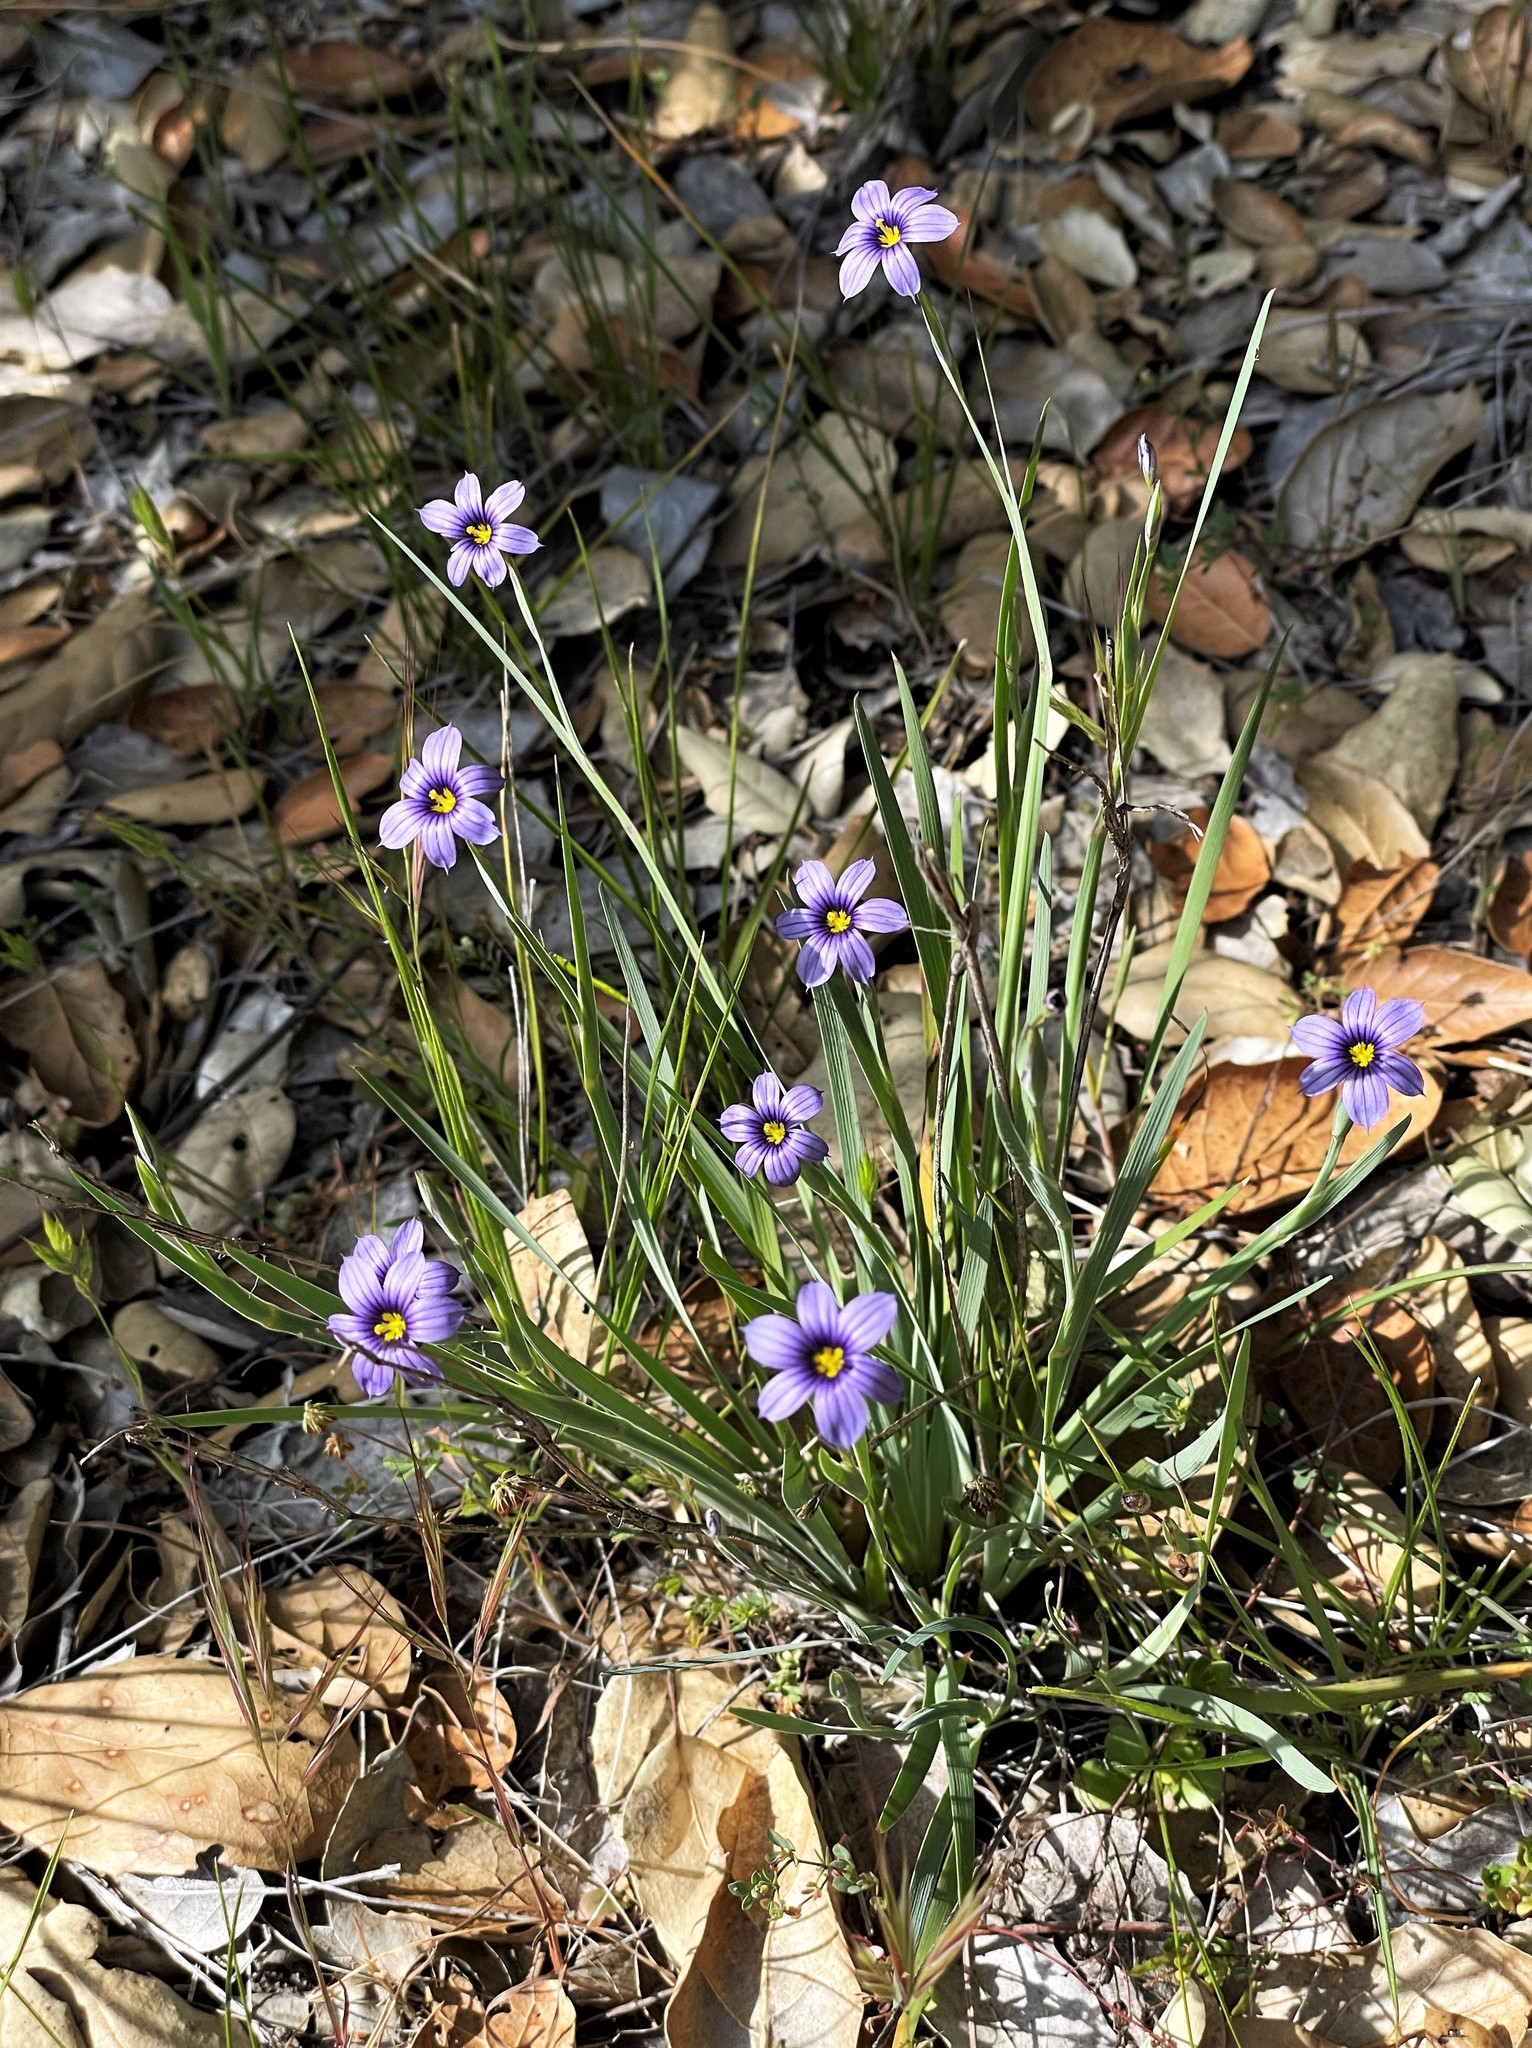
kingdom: Plantae
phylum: Tracheophyta
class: Liliopsida
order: Asparagales
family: Iridaceae
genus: Sisyrinchium
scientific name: Sisyrinchium bellum
